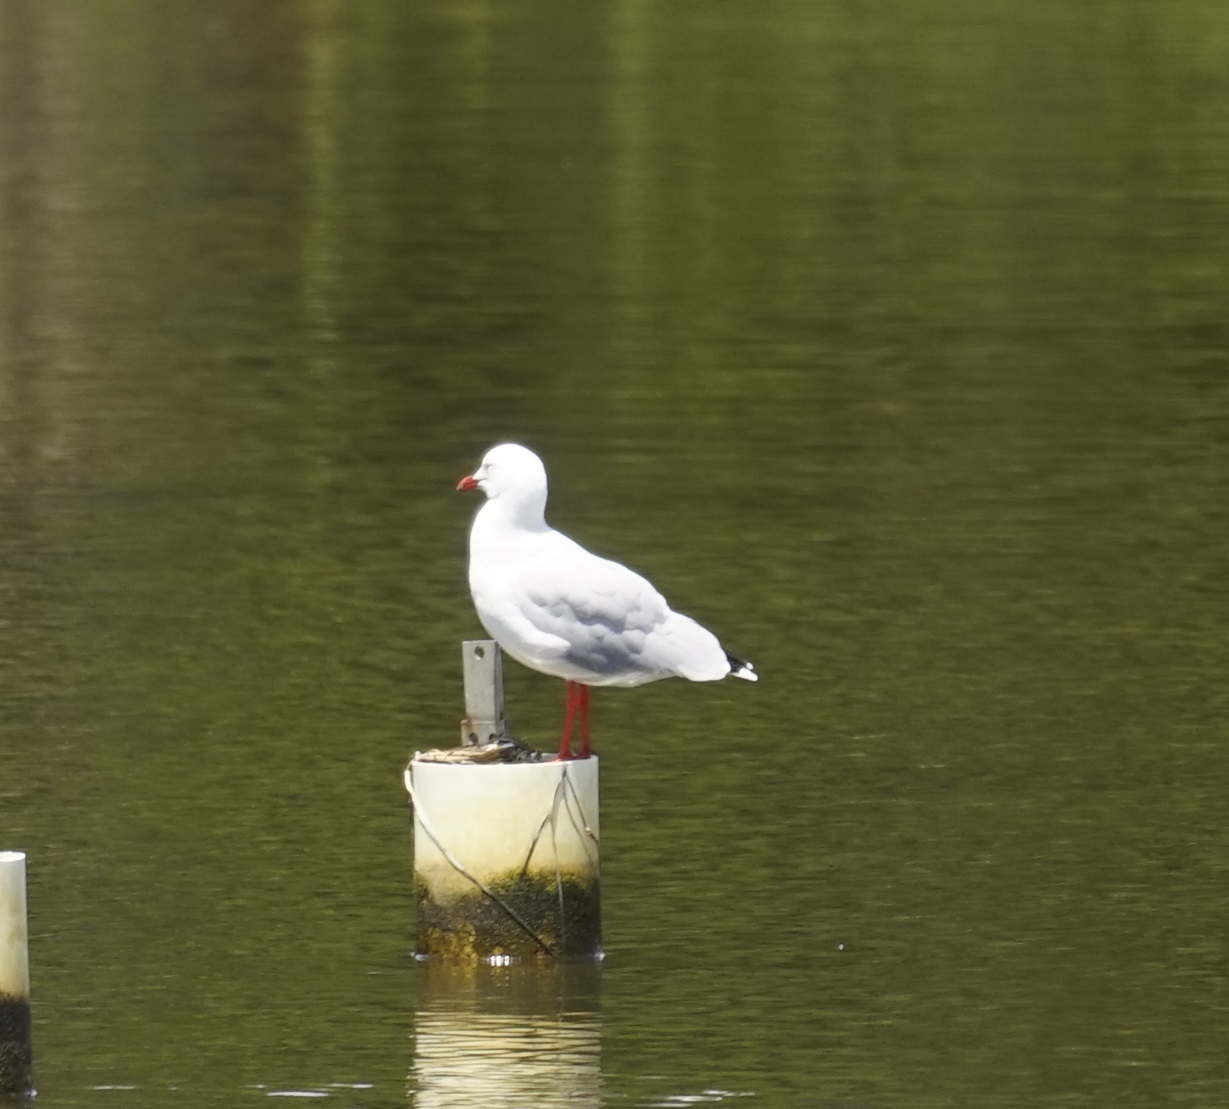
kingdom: Animalia
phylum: Chordata
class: Aves
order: Charadriiformes
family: Laridae
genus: Chroicocephalus
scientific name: Chroicocephalus novaehollandiae
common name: Silver gull
